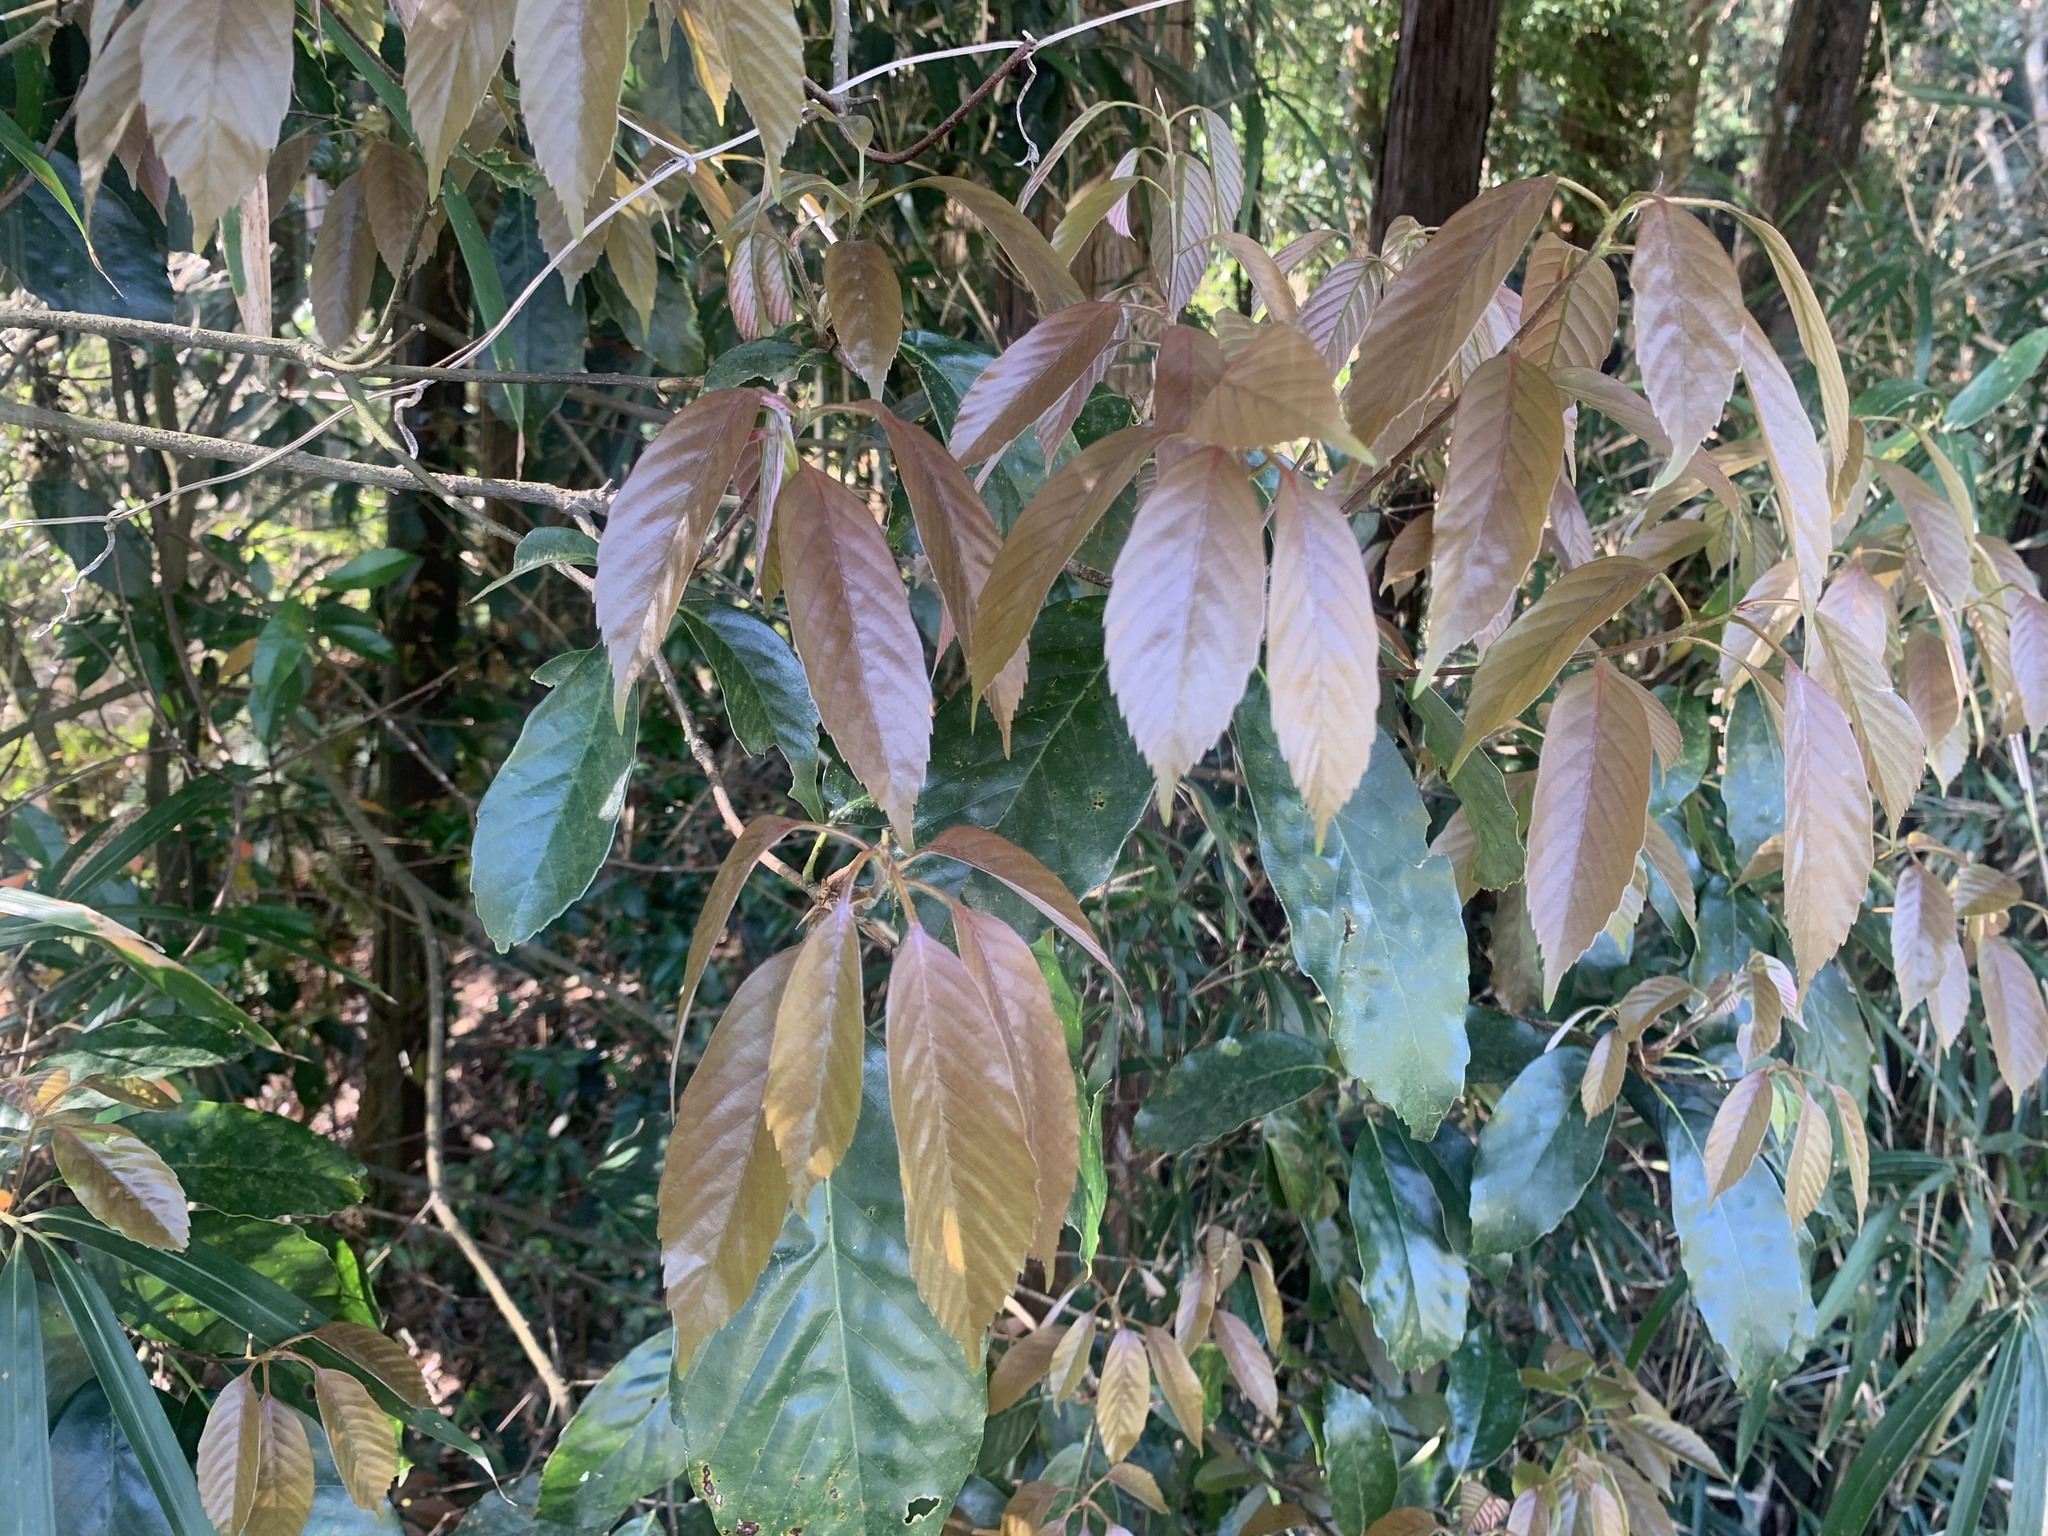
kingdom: Plantae
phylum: Tracheophyta
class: Magnoliopsida
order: Fagales
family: Fagaceae
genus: Quercus
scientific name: Quercus glauca
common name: Ring-cup oak
